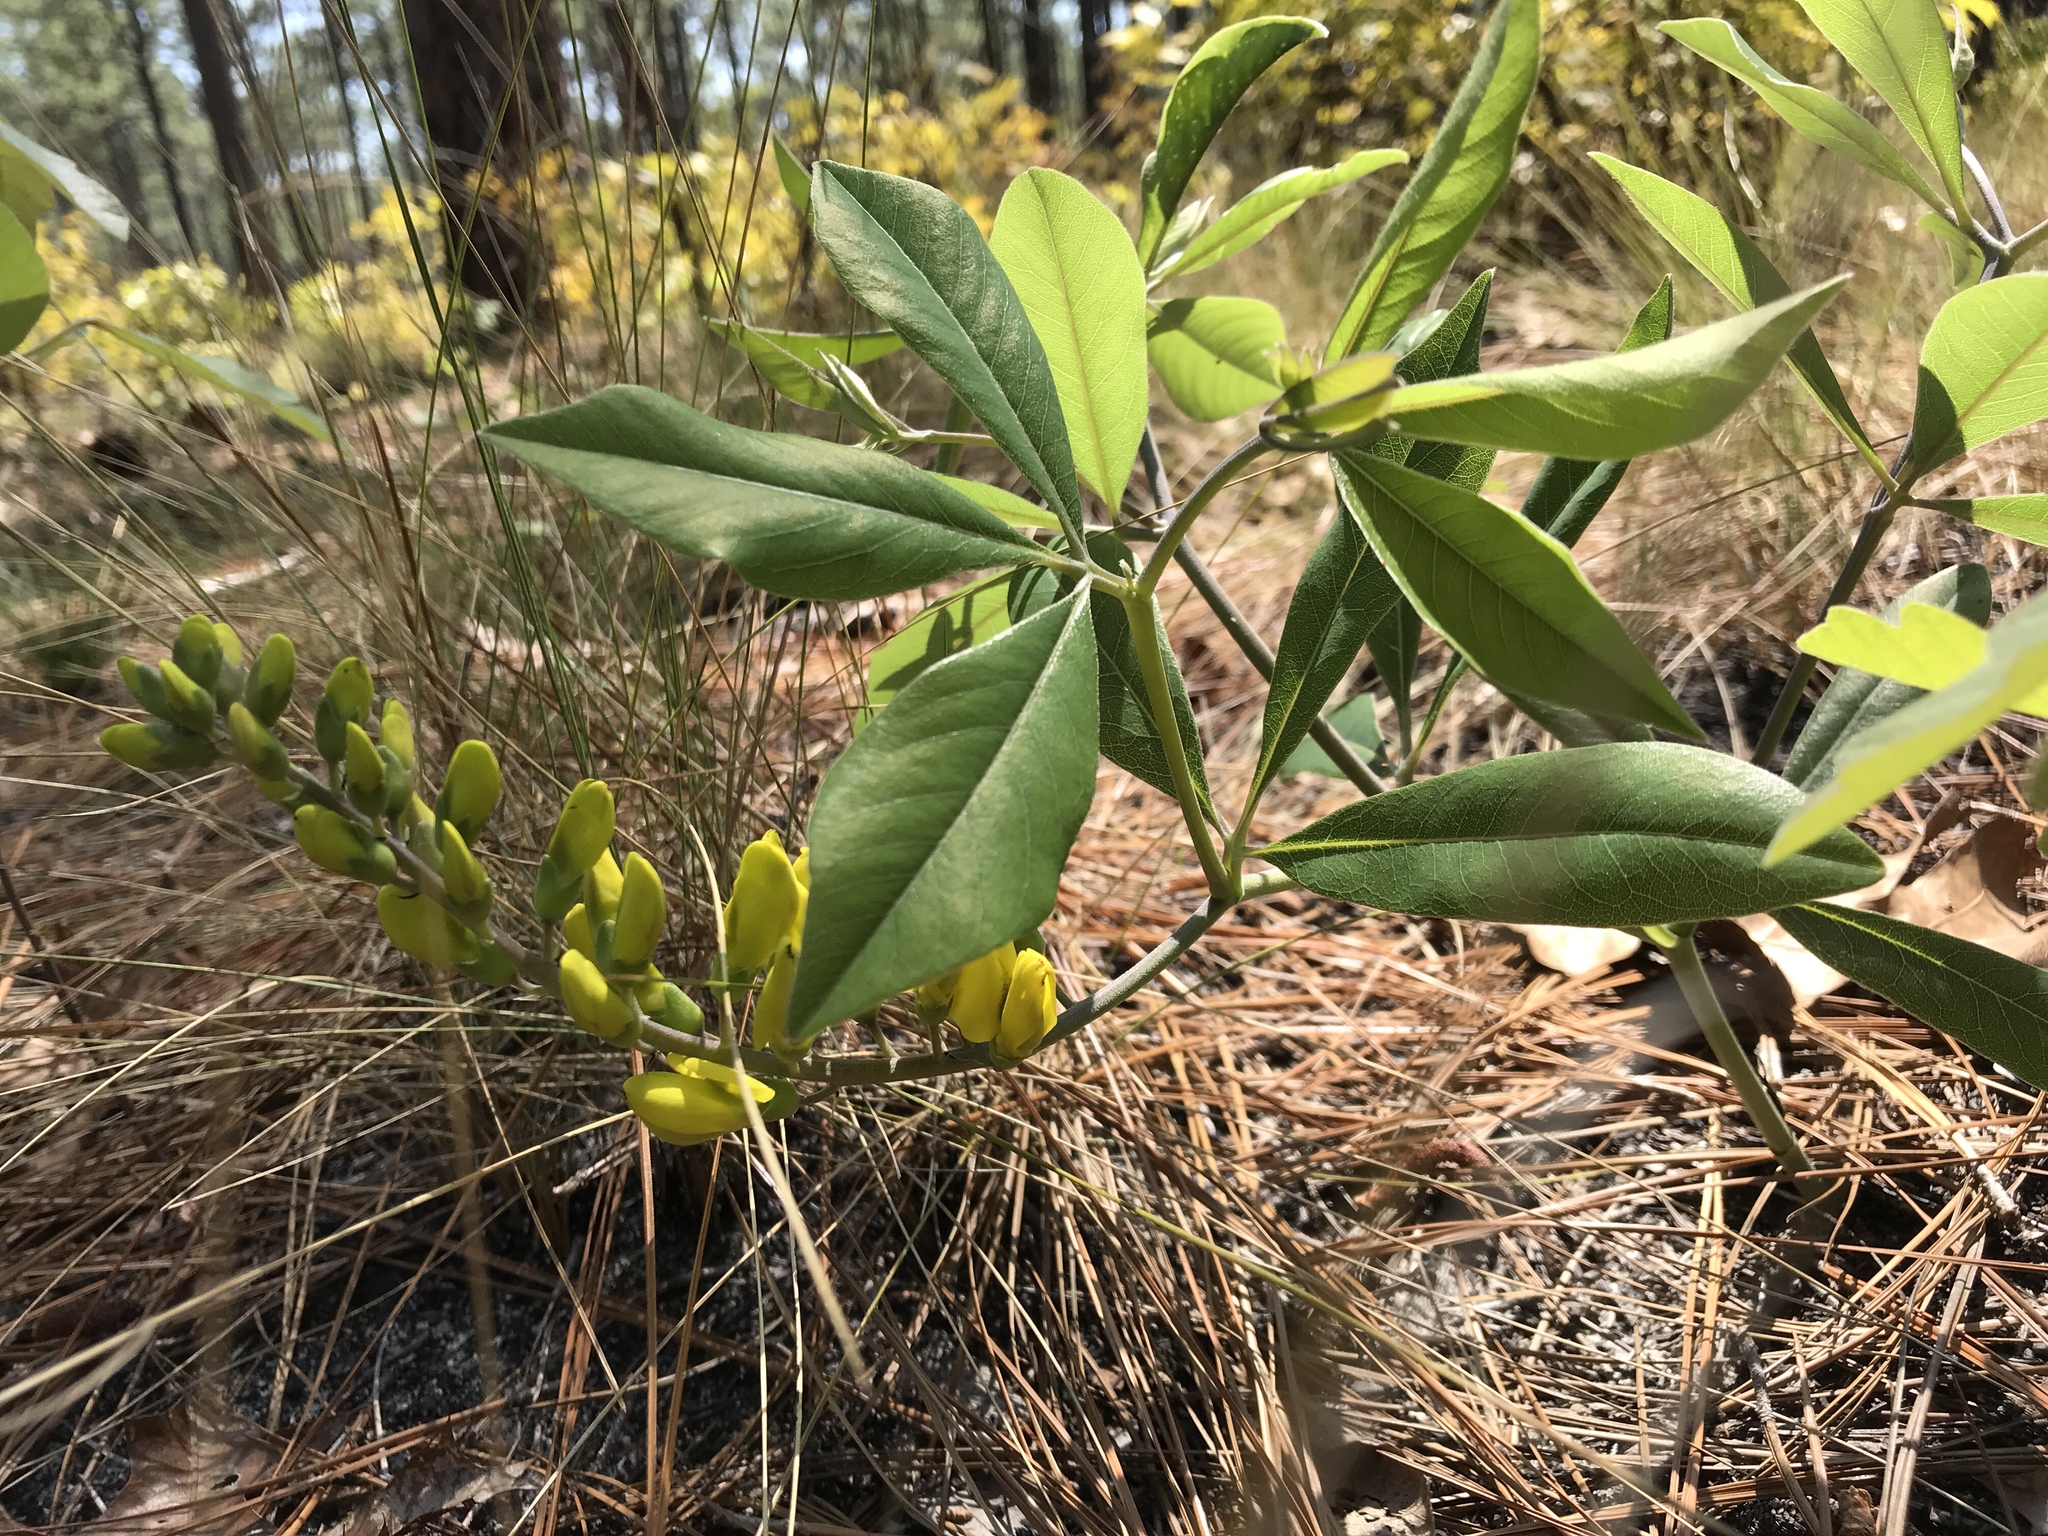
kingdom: Plantae
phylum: Tracheophyta
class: Magnoliopsida
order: Fabales
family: Fabaceae
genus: Baptisia
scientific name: Baptisia cinerea
